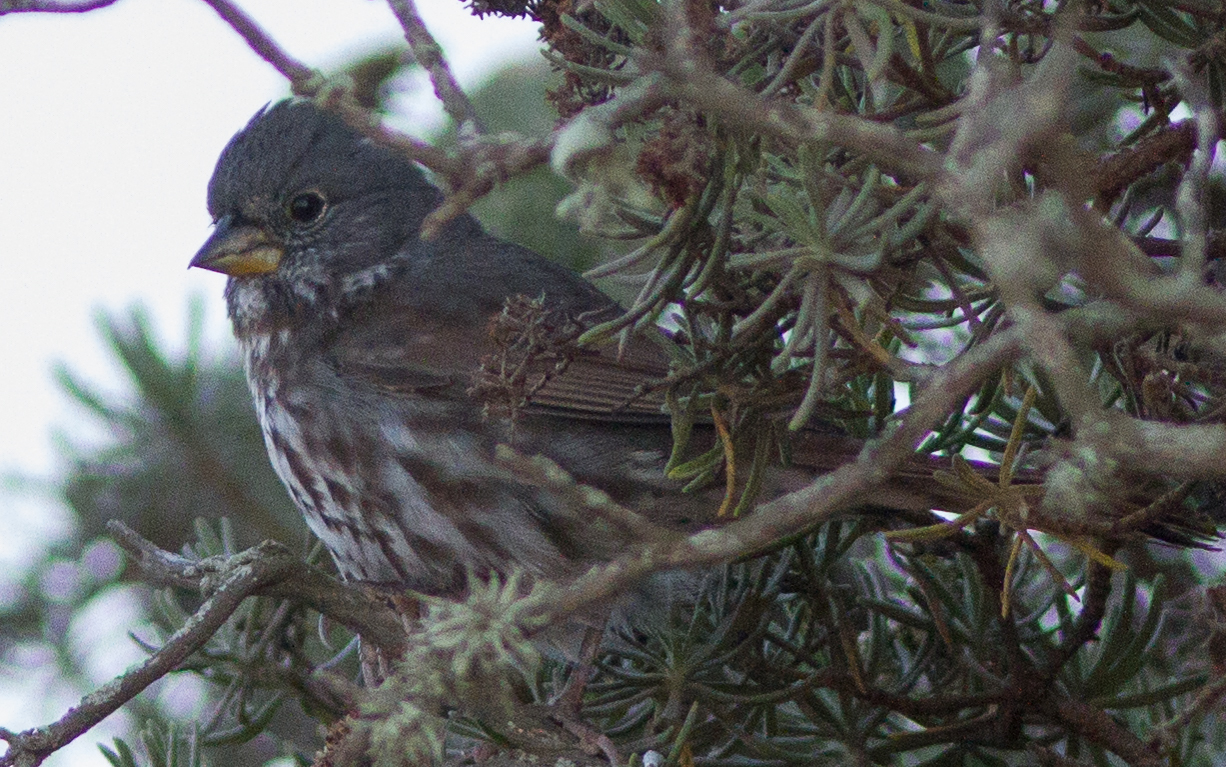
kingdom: Animalia
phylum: Chordata
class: Aves
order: Passeriformes
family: Passerellidae
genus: Passerella
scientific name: Passerella iliaca
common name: Fox sparrow
